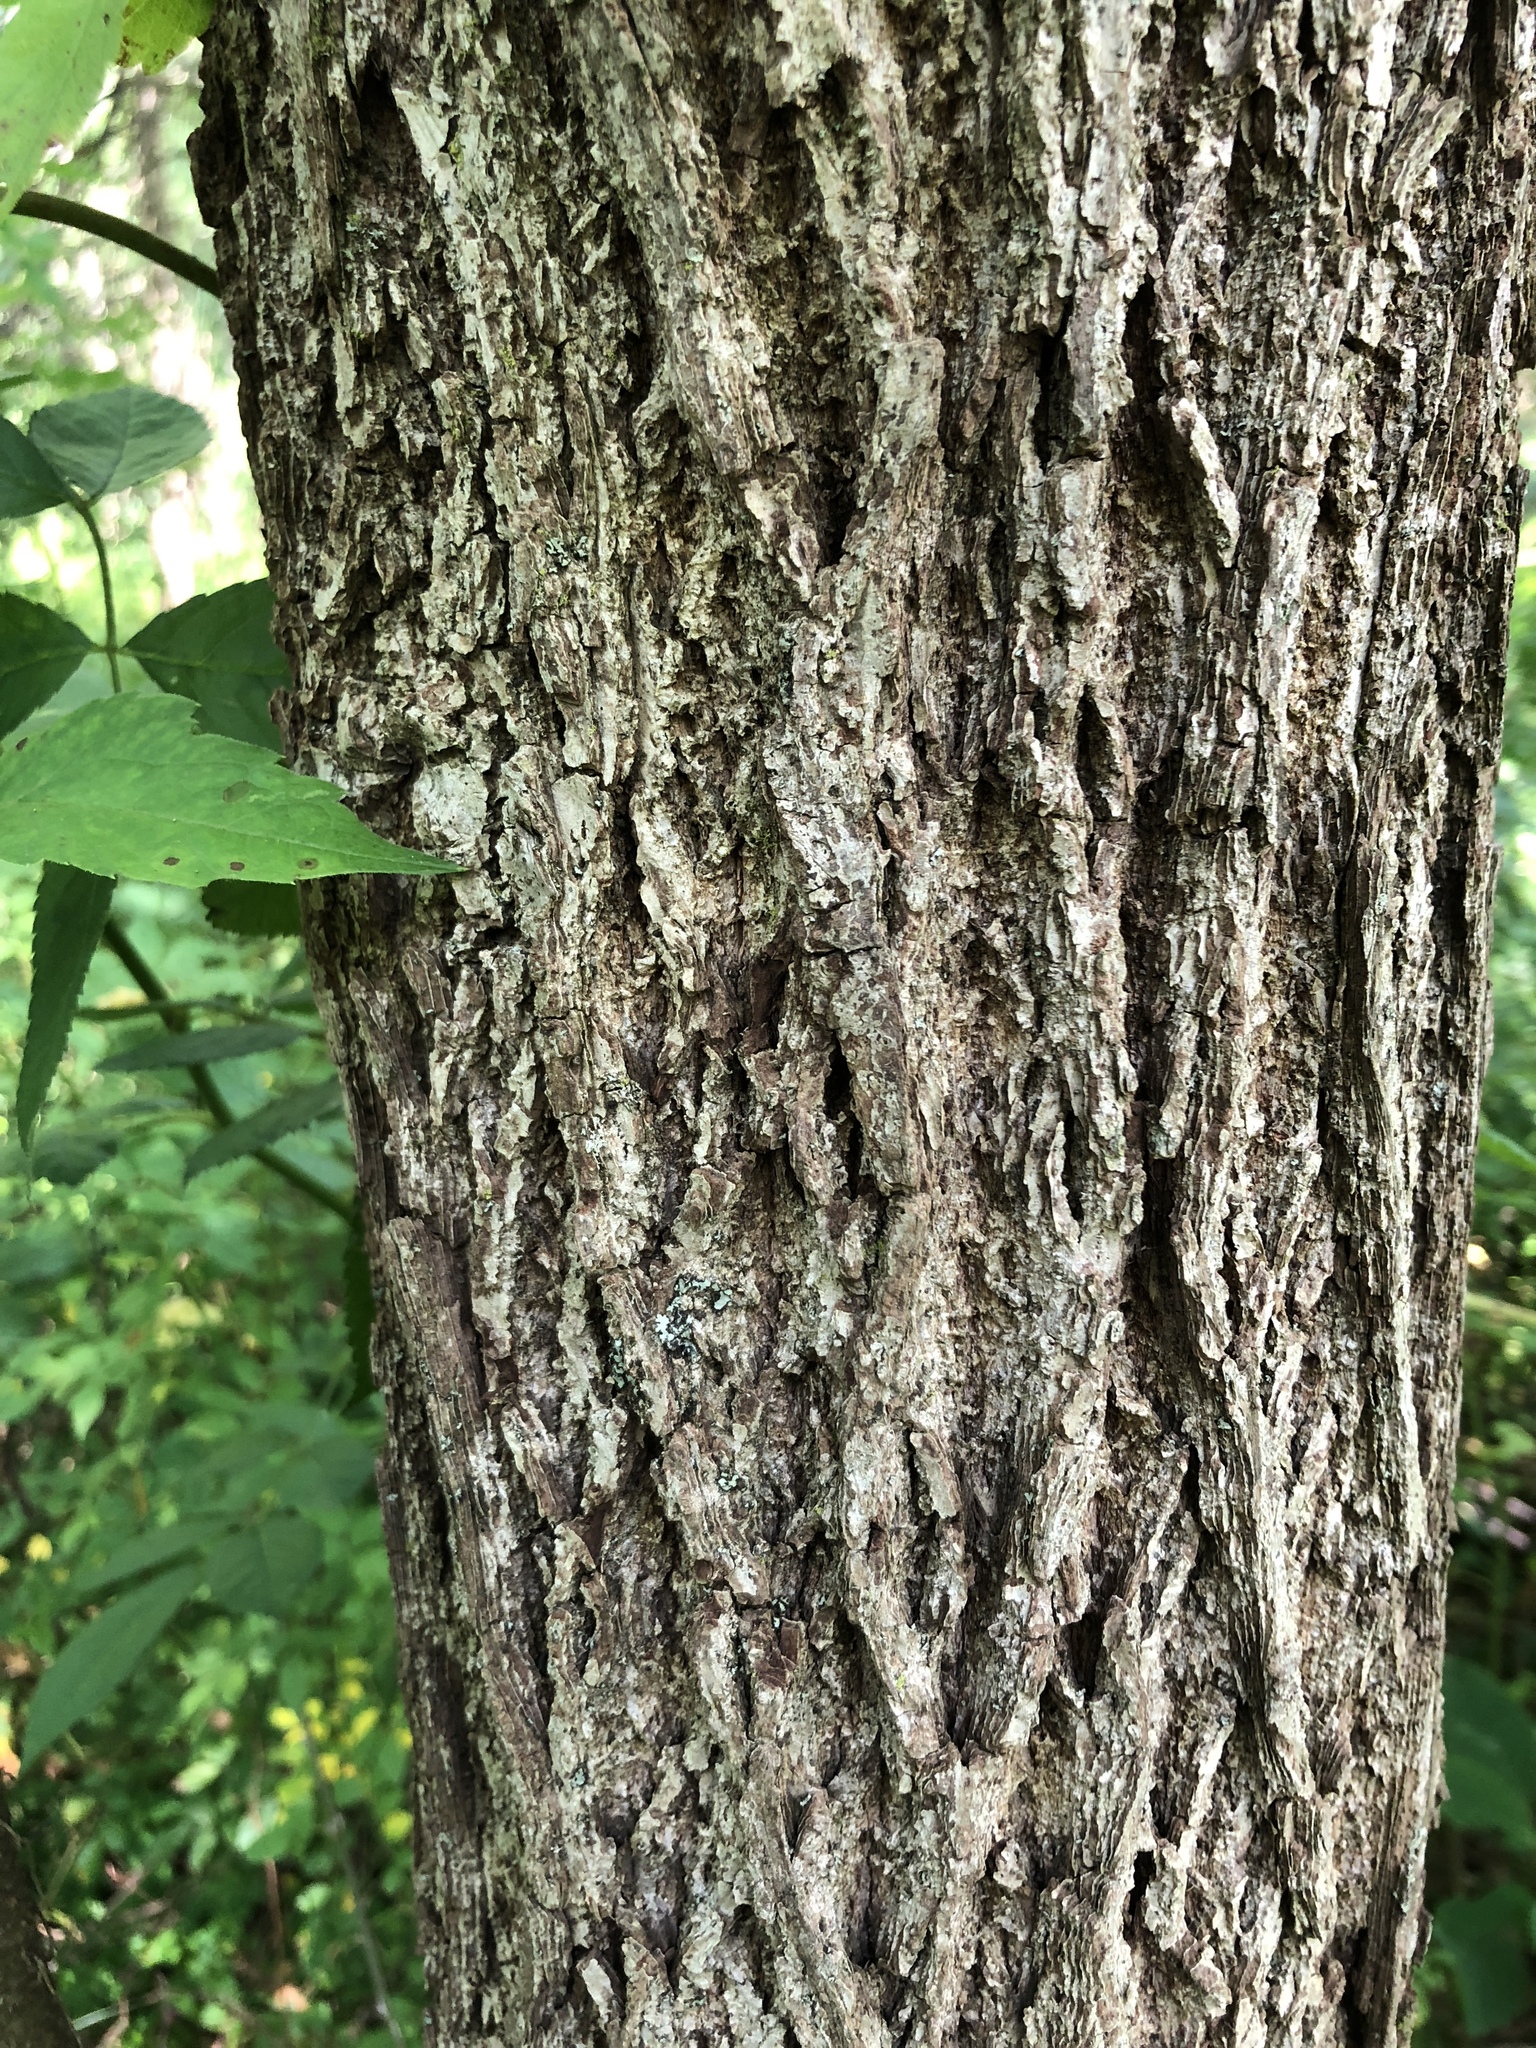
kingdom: Plantae
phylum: Tracheophyta
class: Magnoliopsida
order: Fagales
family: Juglandaceae
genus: Juglans
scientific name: Juglans nigra
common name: Black walnut
